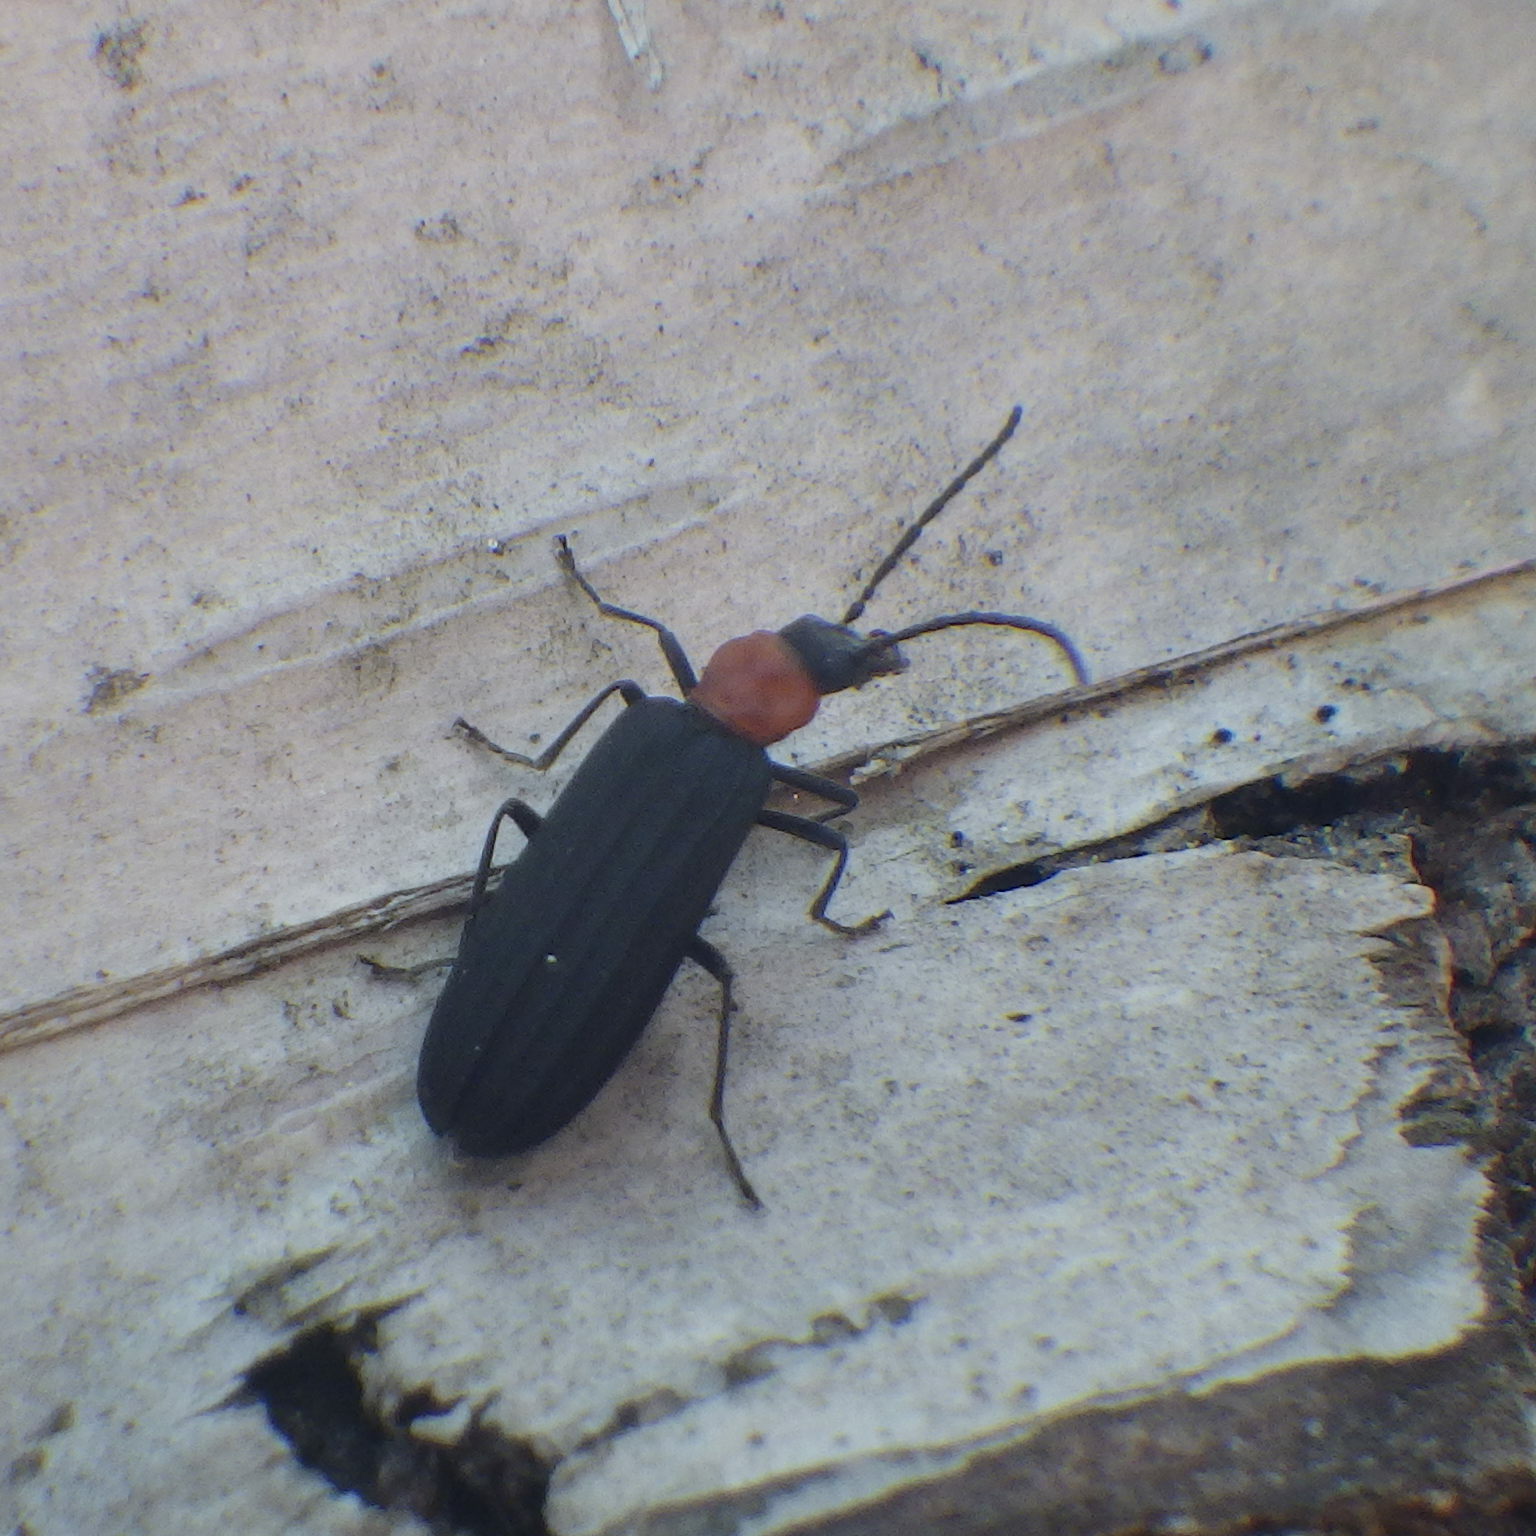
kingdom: Animalia
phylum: Arthropoda
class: Insecta
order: Coleoptera
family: Oedemeridae
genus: Ischnomera
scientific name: Ischnomera
